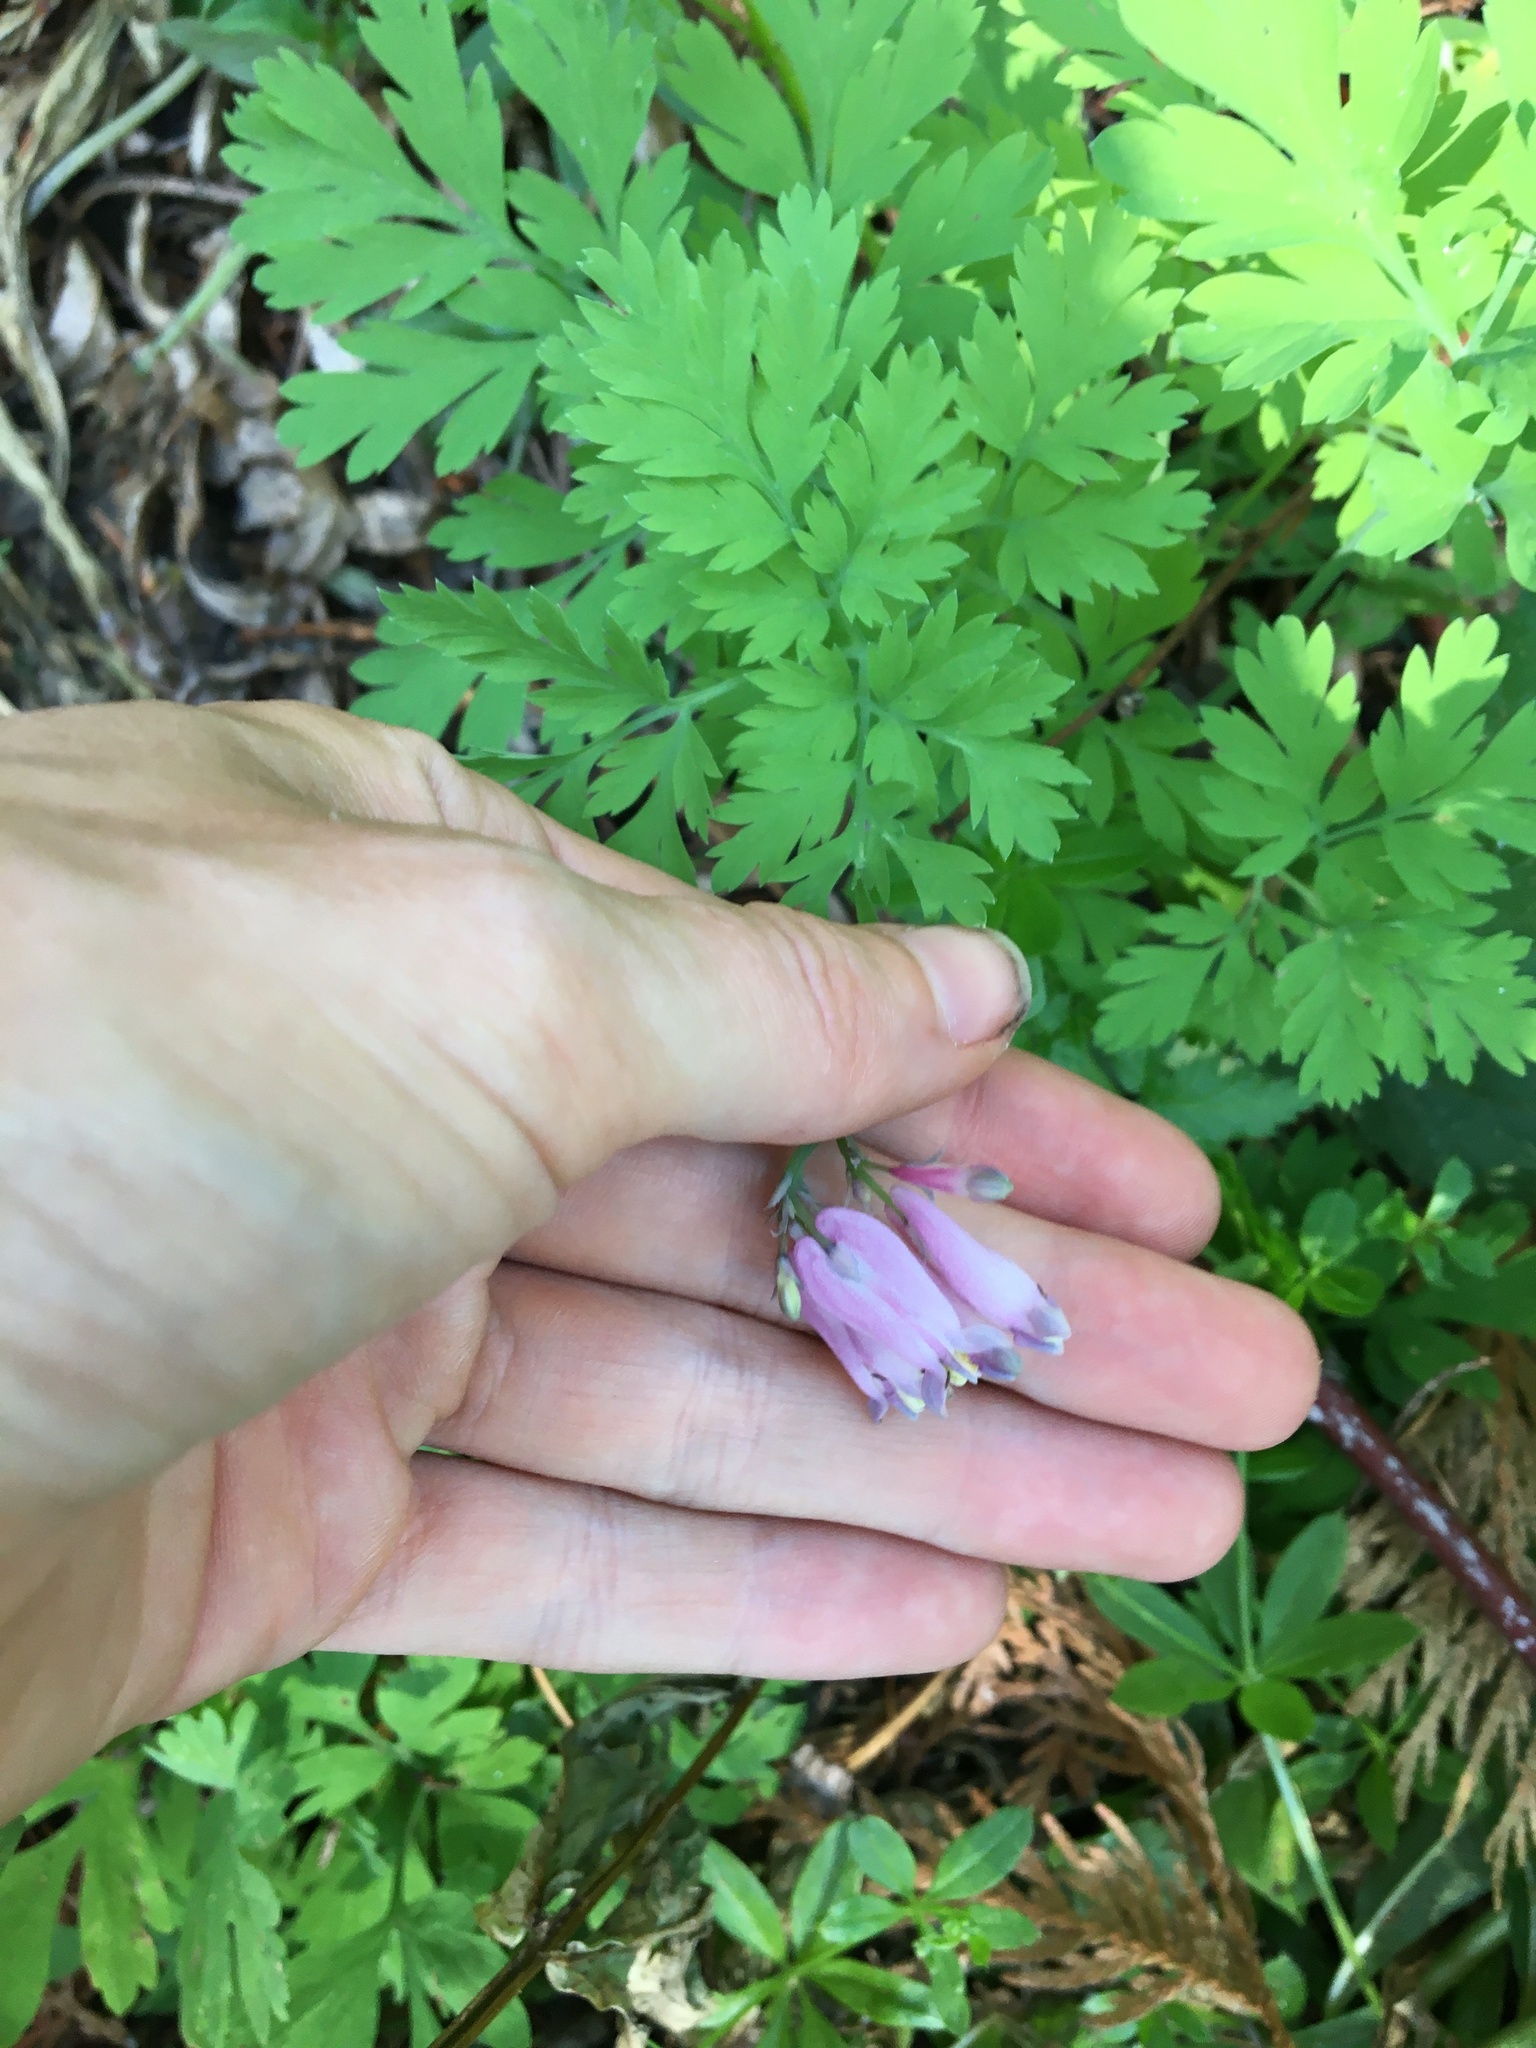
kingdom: Plantae
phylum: Tracheophyta
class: Magnoliopsida
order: Ranunculales
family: Papaveraceae
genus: Dicentra
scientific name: Dicentra formosa
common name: Bleeding-heart
